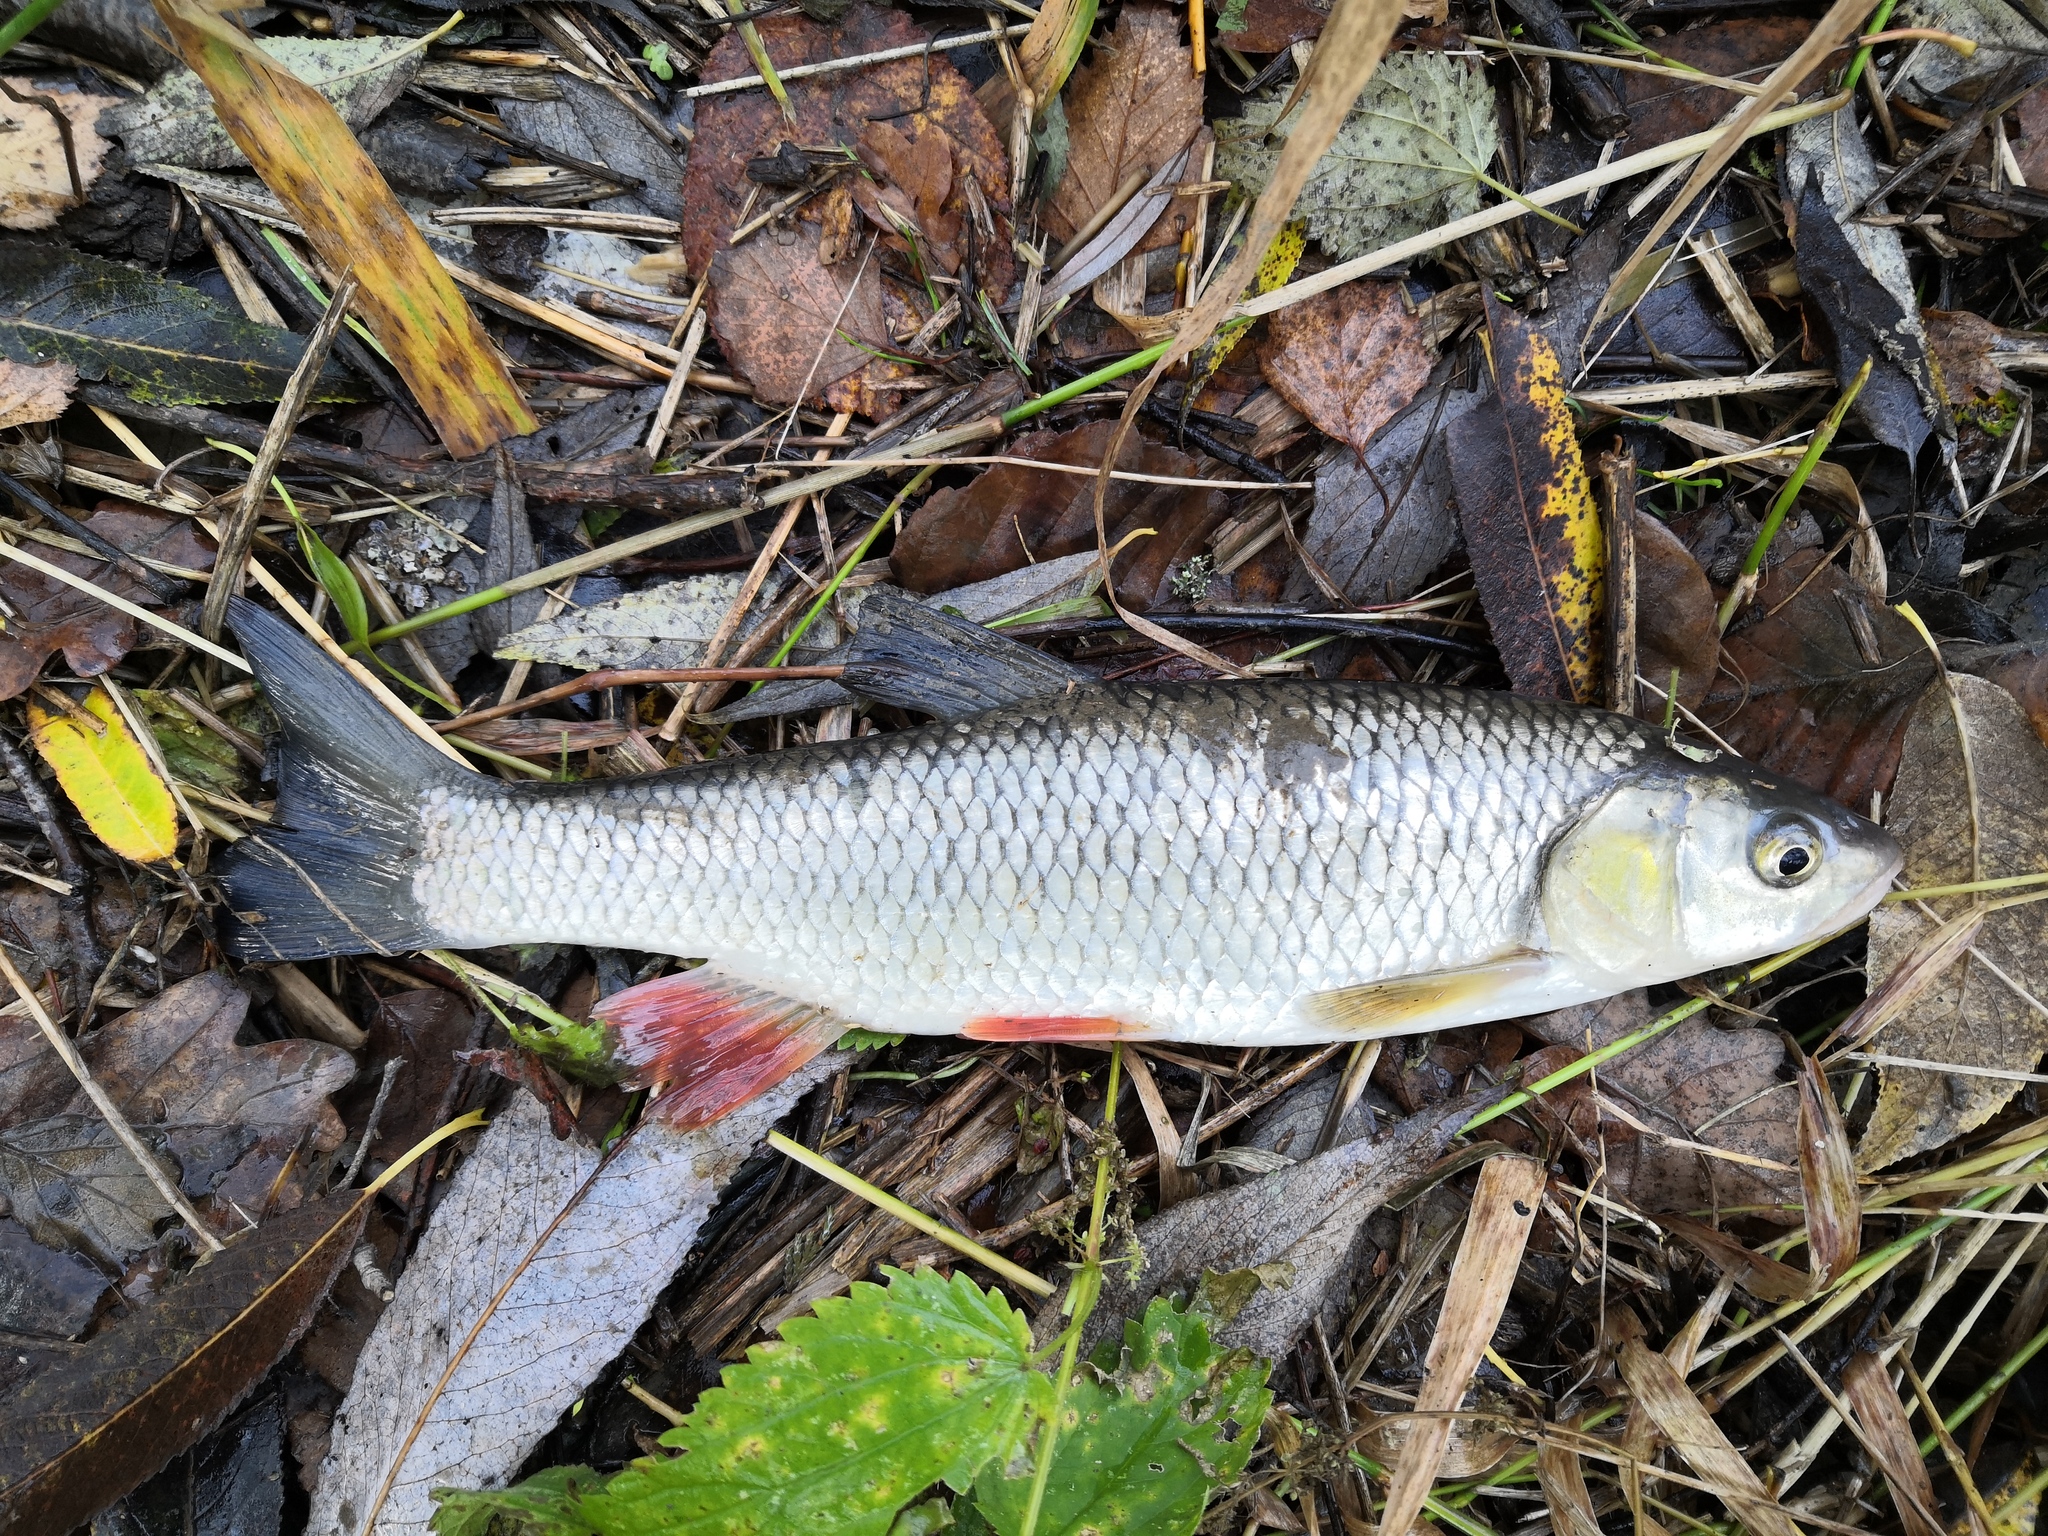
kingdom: Animalia
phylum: Chordata
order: Cypriniformes
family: Cyprinidae
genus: Squalius
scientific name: Squalius cephalus
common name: Chub
